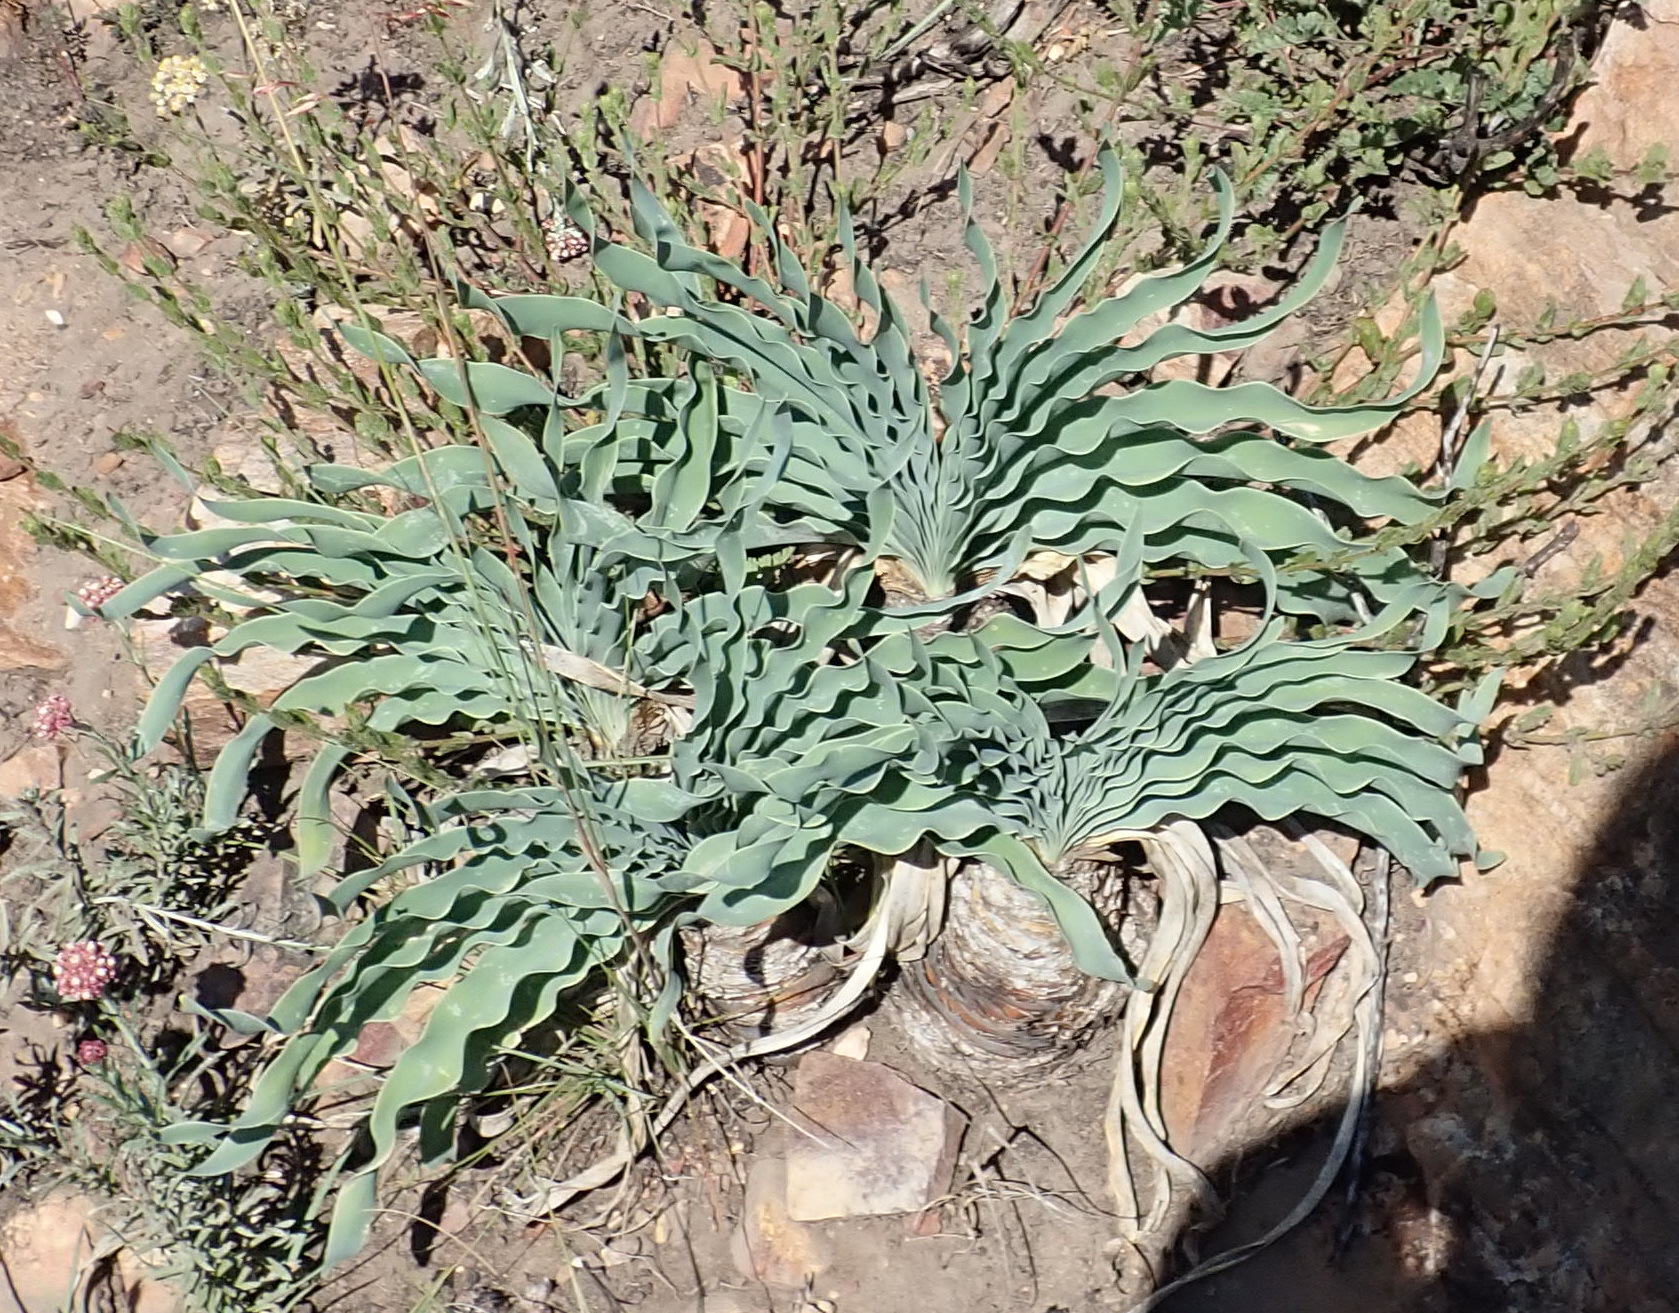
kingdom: Plantae
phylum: Tracheophyta
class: Liliopsida
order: Asparagales
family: Amaryllidaceae
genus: Boophone
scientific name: Boophone disticha
